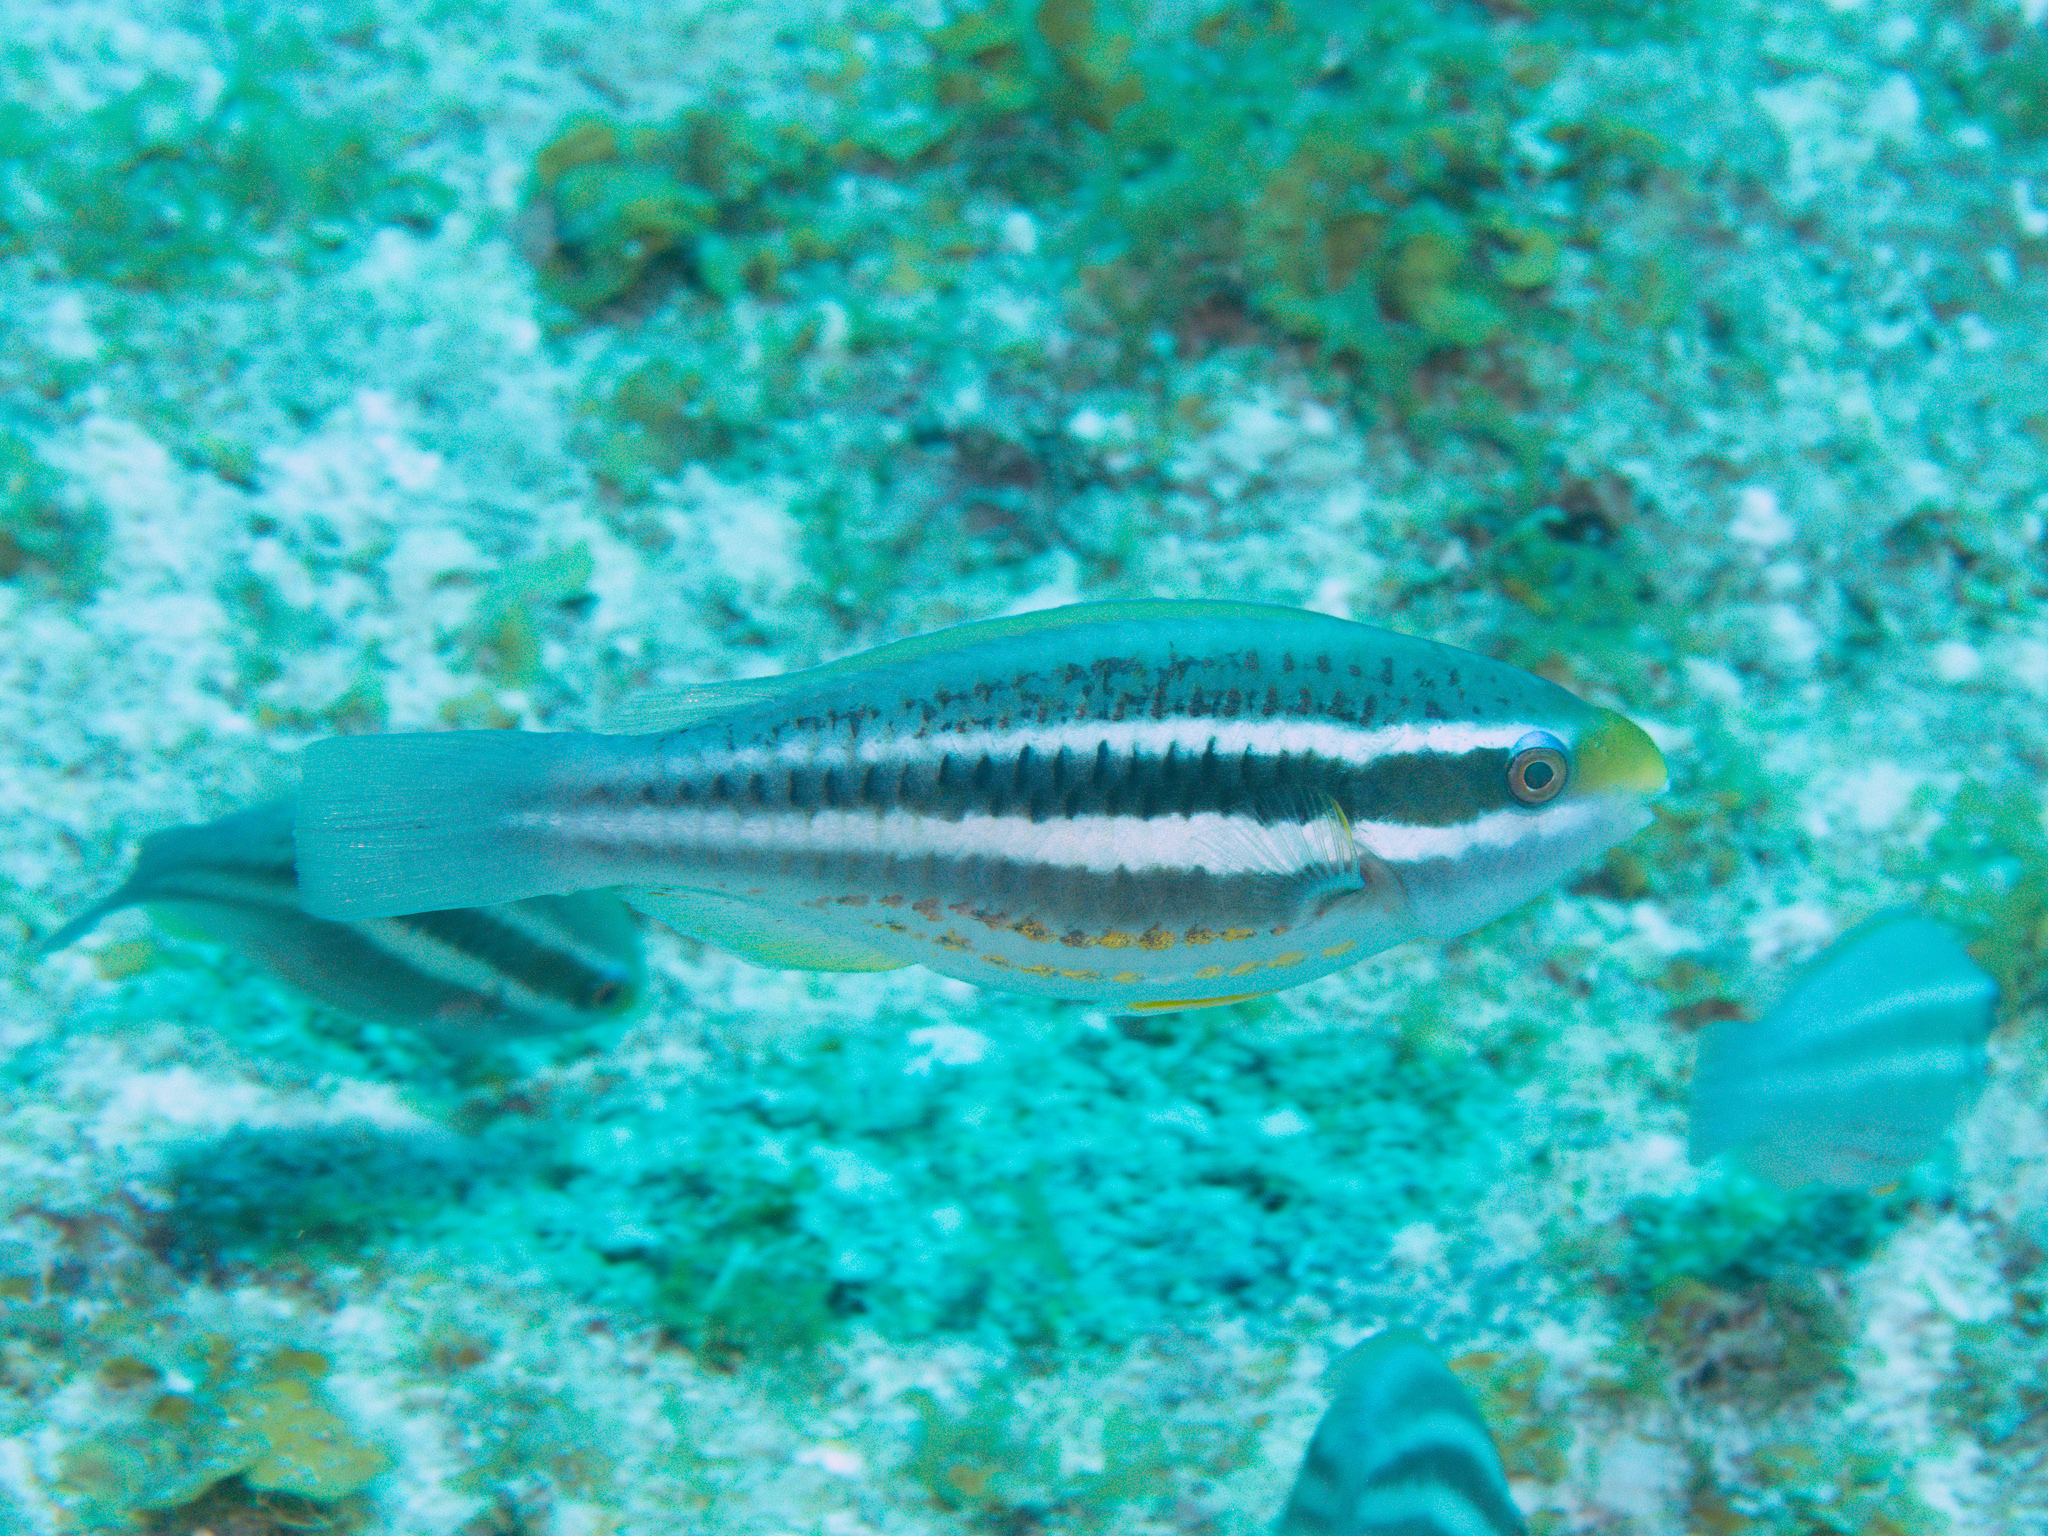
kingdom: Animalia
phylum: Chordata
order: Perciformes
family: Scaridae
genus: Scarus
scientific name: Scarus iseri
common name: Striped parrotfish
